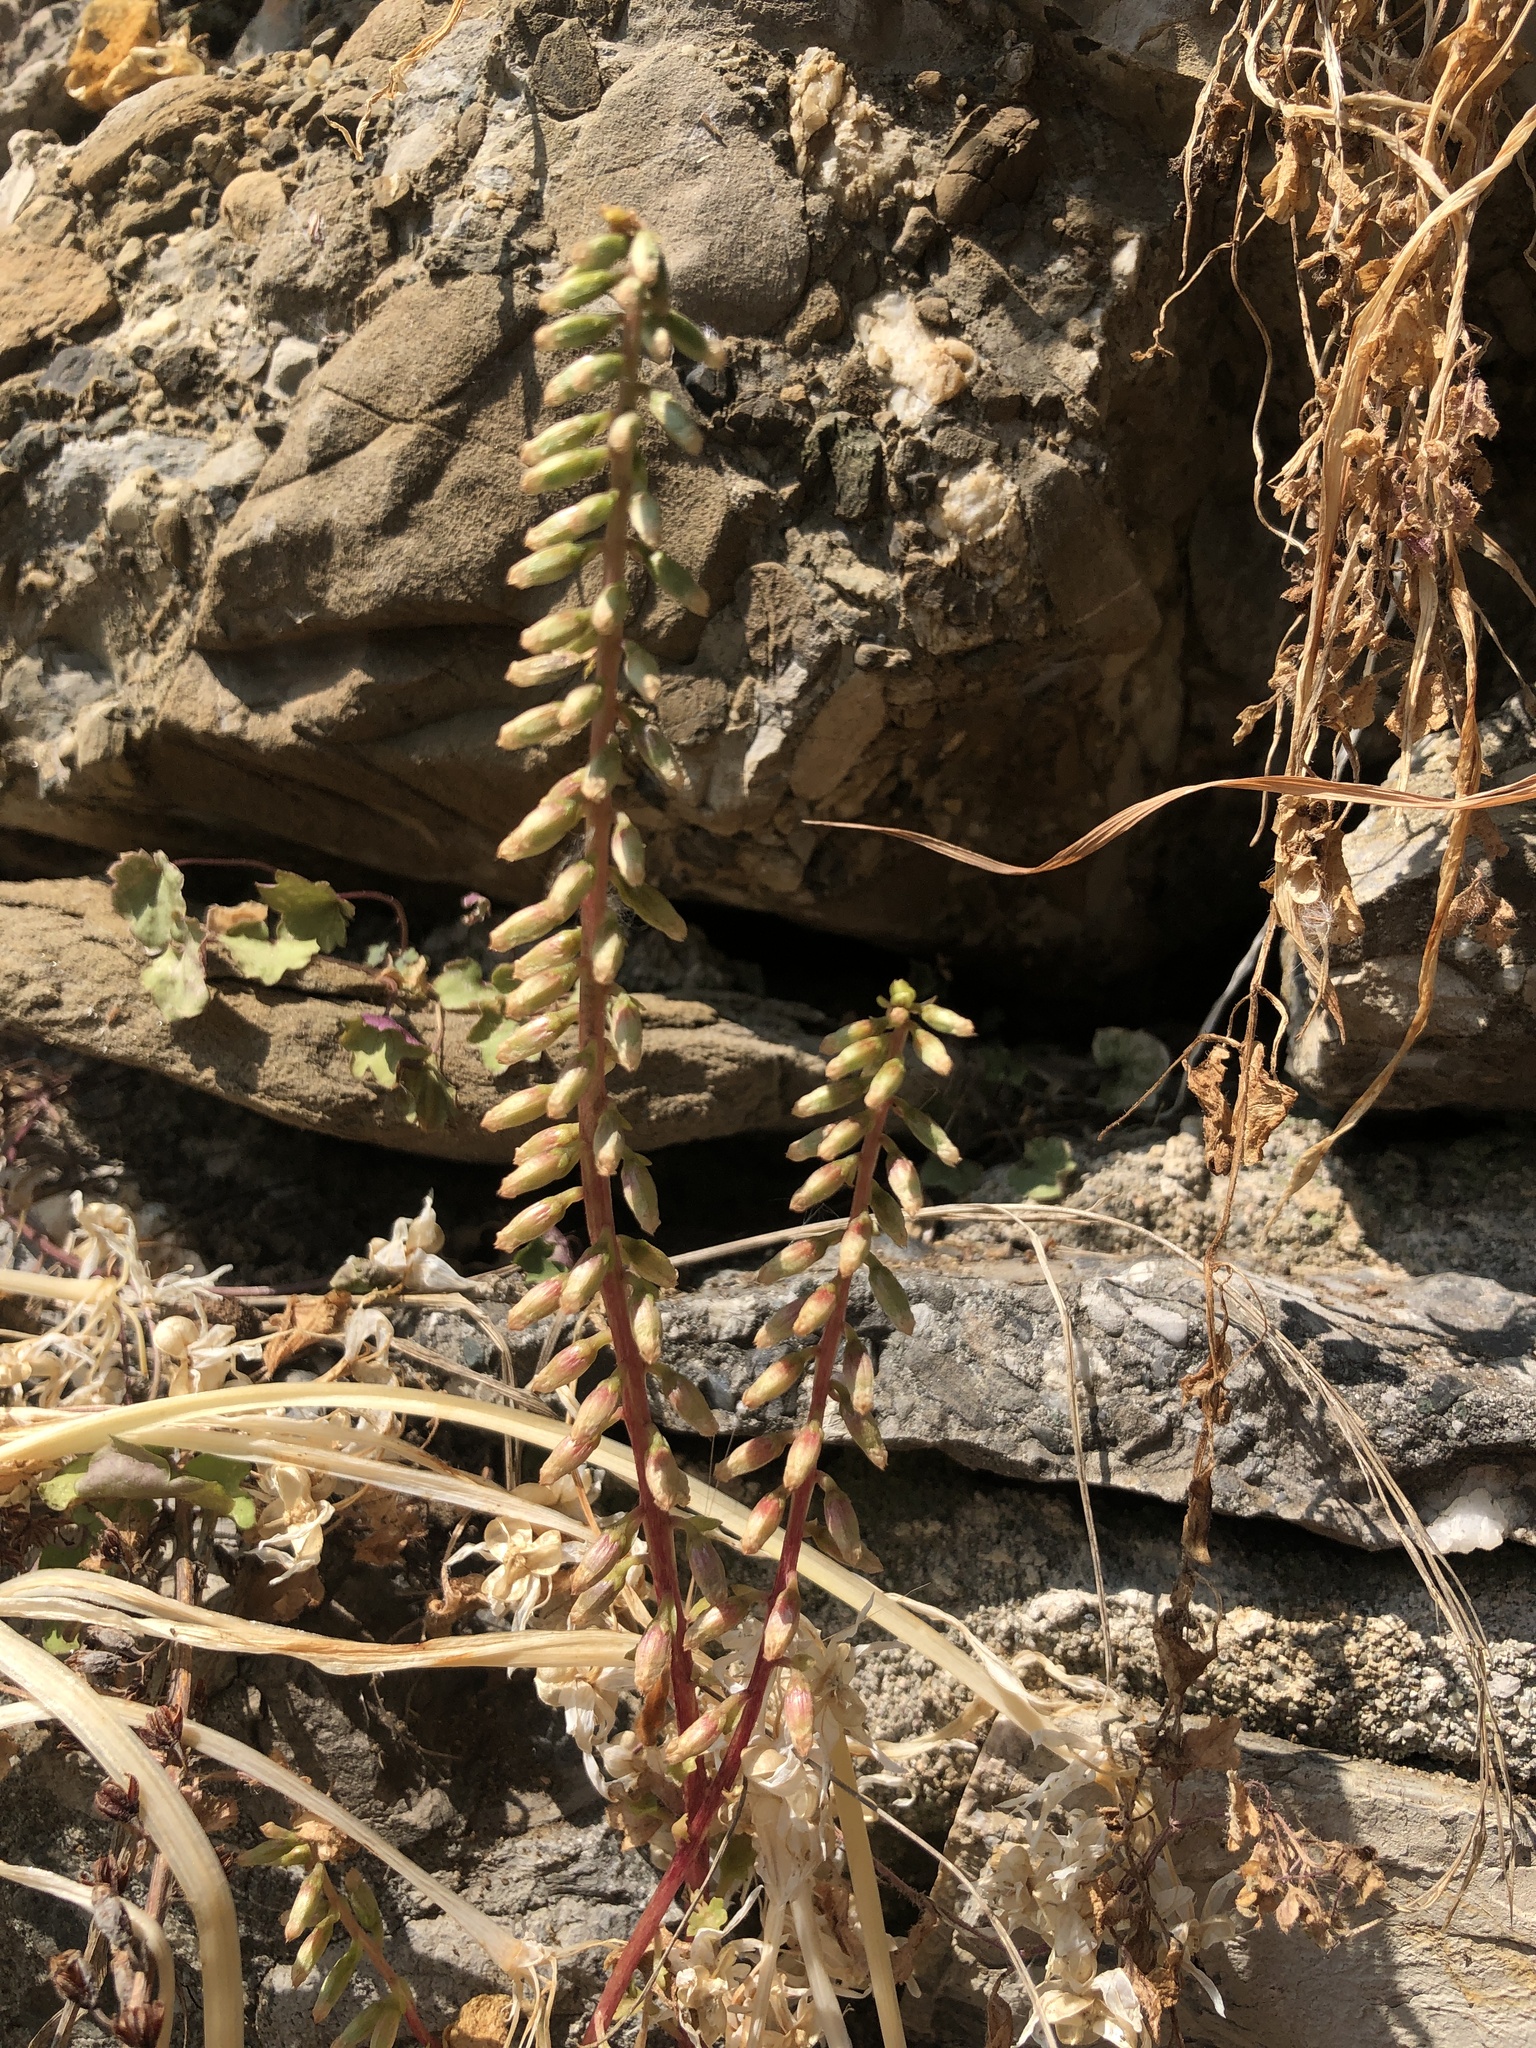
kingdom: Plantae
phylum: Tracheophyta
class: Magnoliopsida
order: Saxifragales
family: Crassulaceae
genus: Umbilicus
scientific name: Umbilicus rupestris
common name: Navelwort
